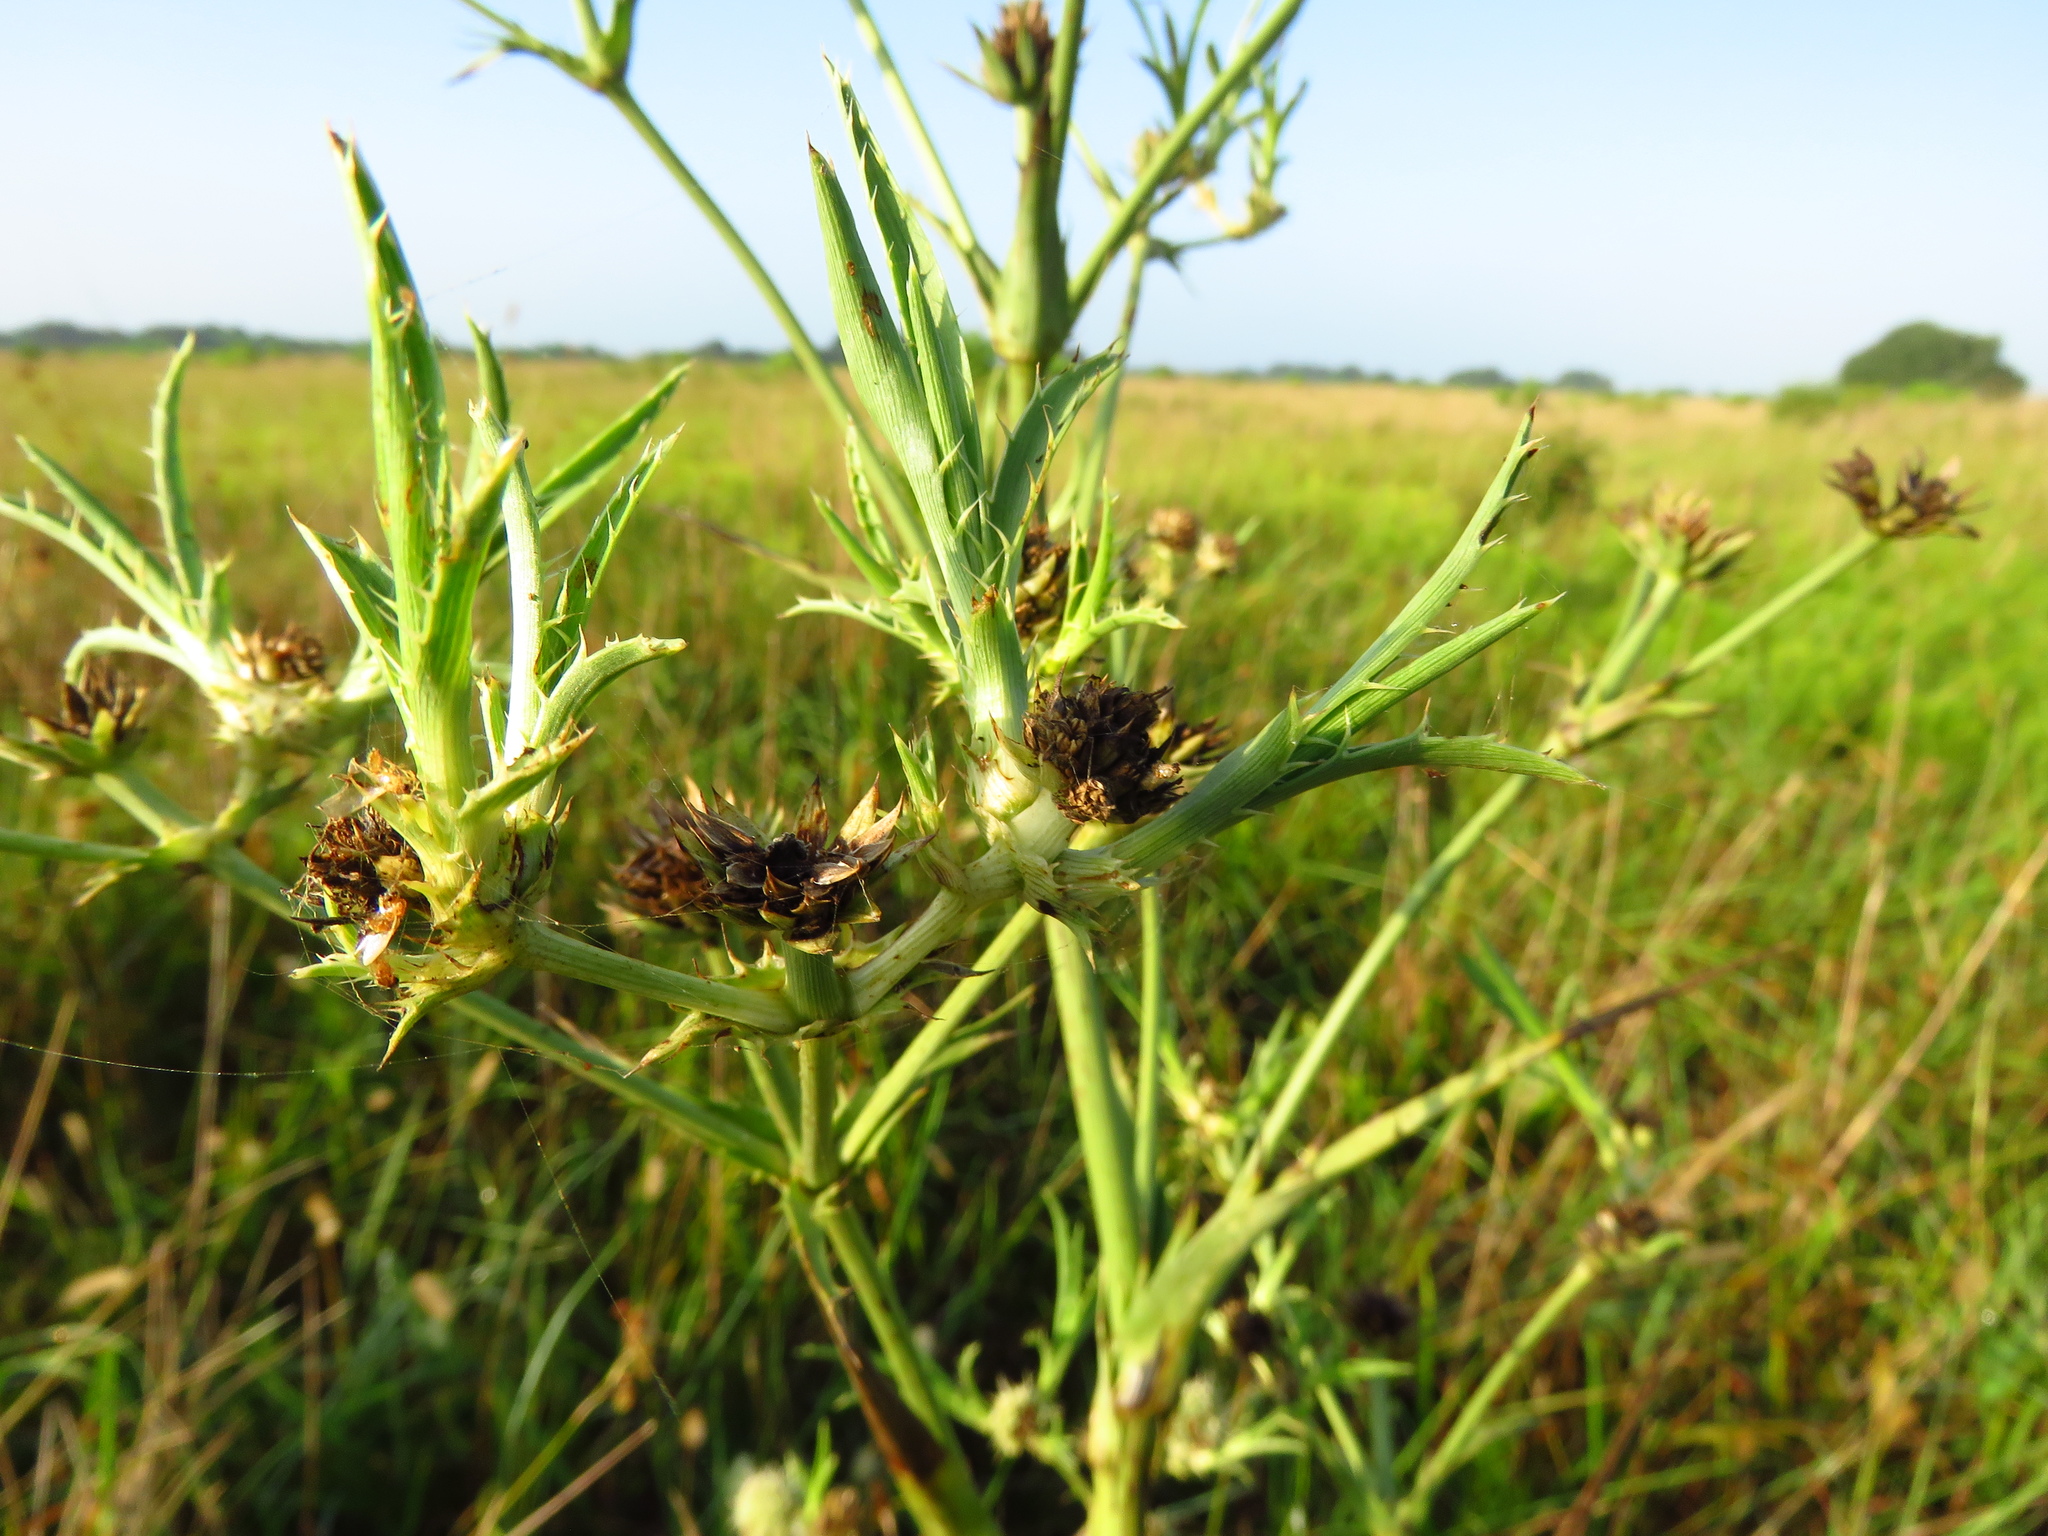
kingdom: Plantae
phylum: Tracheophyta
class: Magnoliopsida
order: Apiales
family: Apiaceae
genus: Eryngium
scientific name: Eryngium yuccifolium
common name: Button eryngo
